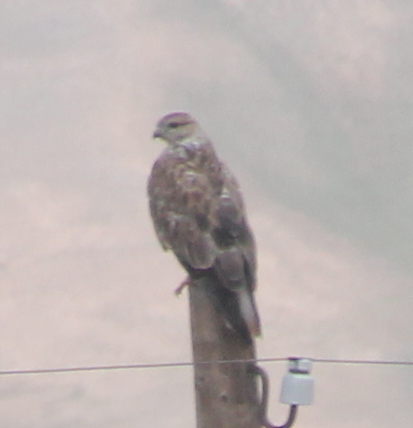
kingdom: Animalia
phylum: Chordata
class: Aves
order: Accipitriformes
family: Accipitridae
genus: Buteo
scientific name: Buteo rufinus
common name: Long-legged buzzard
